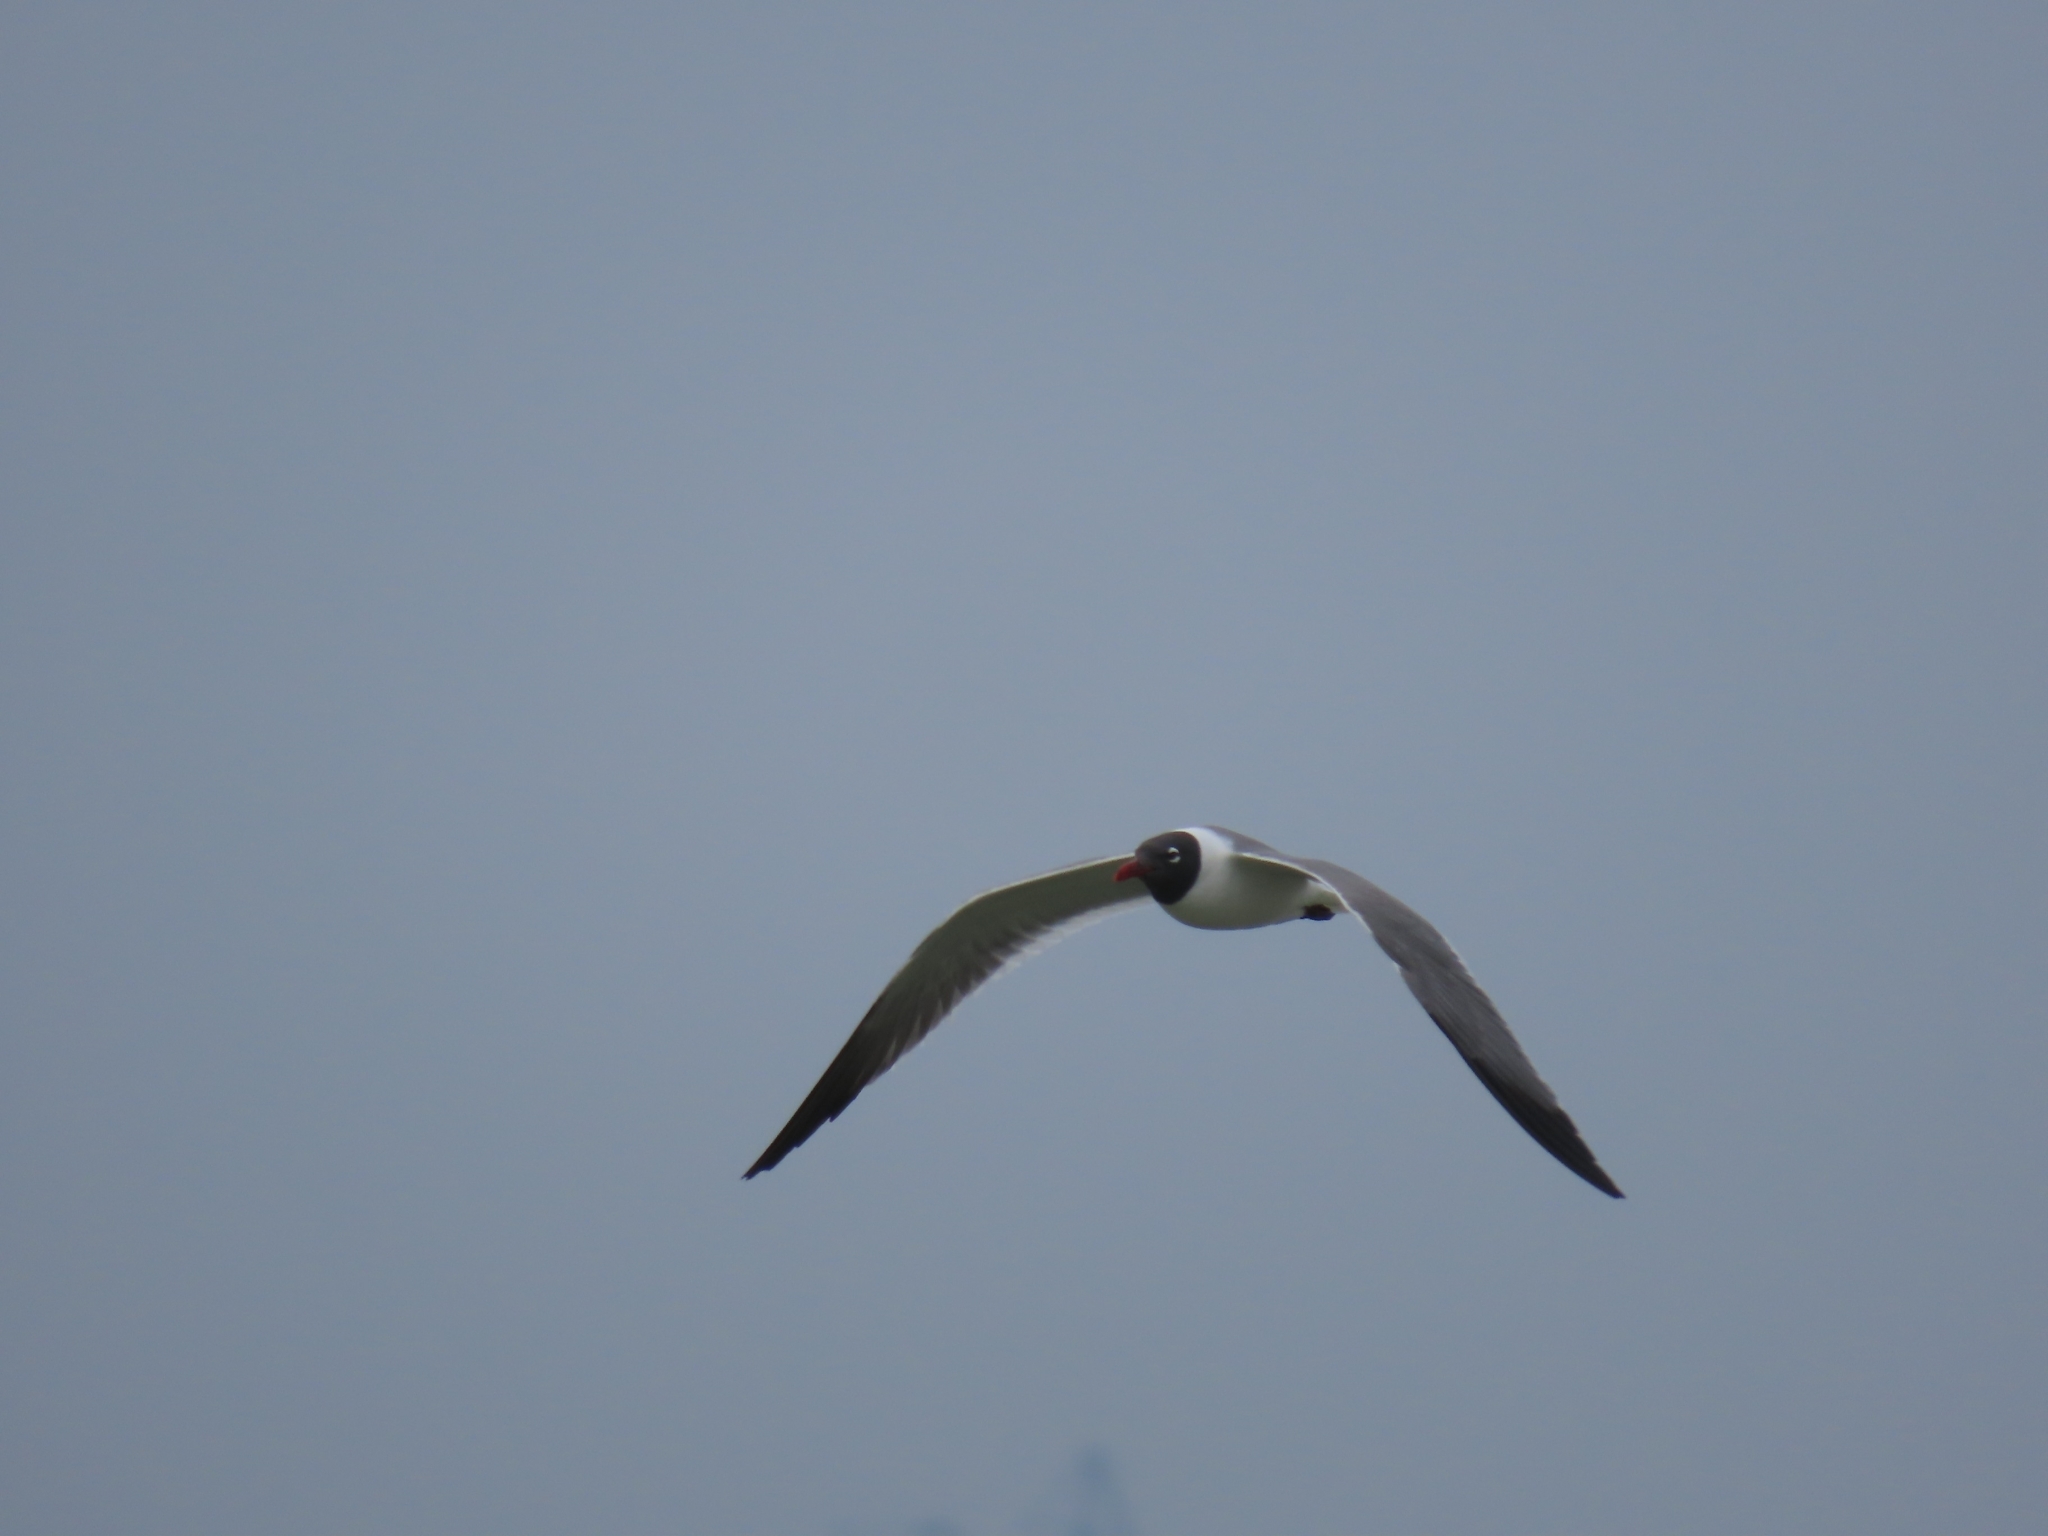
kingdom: Animalia
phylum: Chordata
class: Aves
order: Charadriiformes
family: Laridae
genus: Leucophaeus
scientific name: Leucophaeus atricilla
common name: Laughing gull
